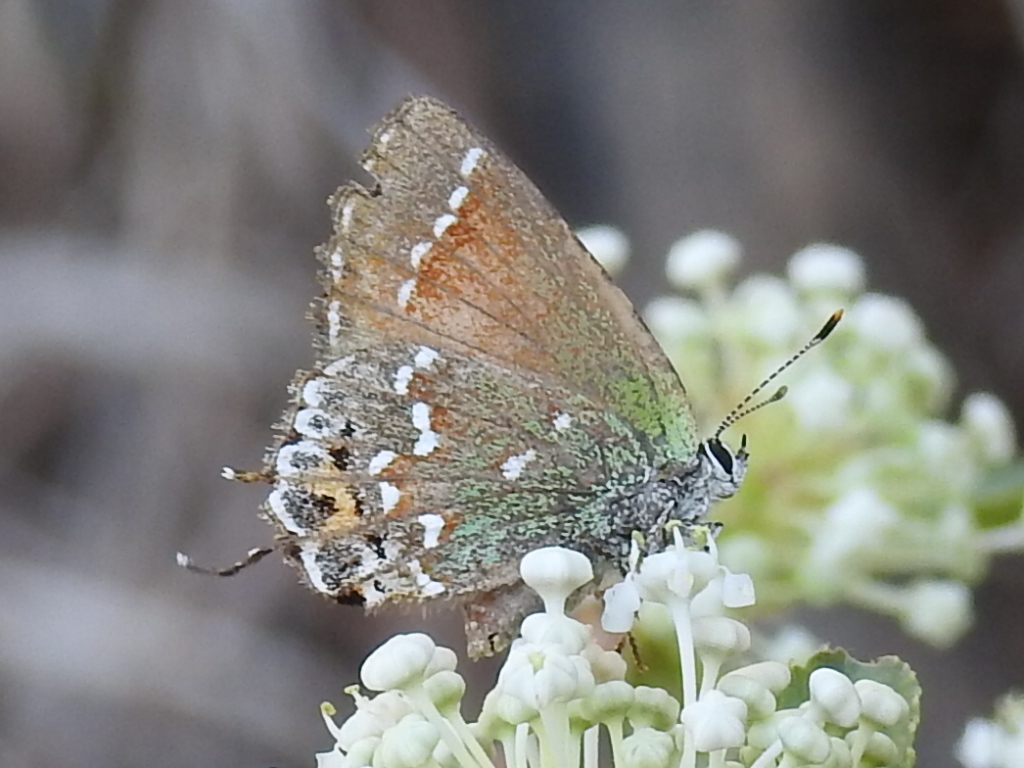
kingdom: Animalia
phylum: Arthropoda
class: Insecta
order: Lepidoptera
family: Lycaenidae
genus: Mitoura
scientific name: Mitoura gryneus
